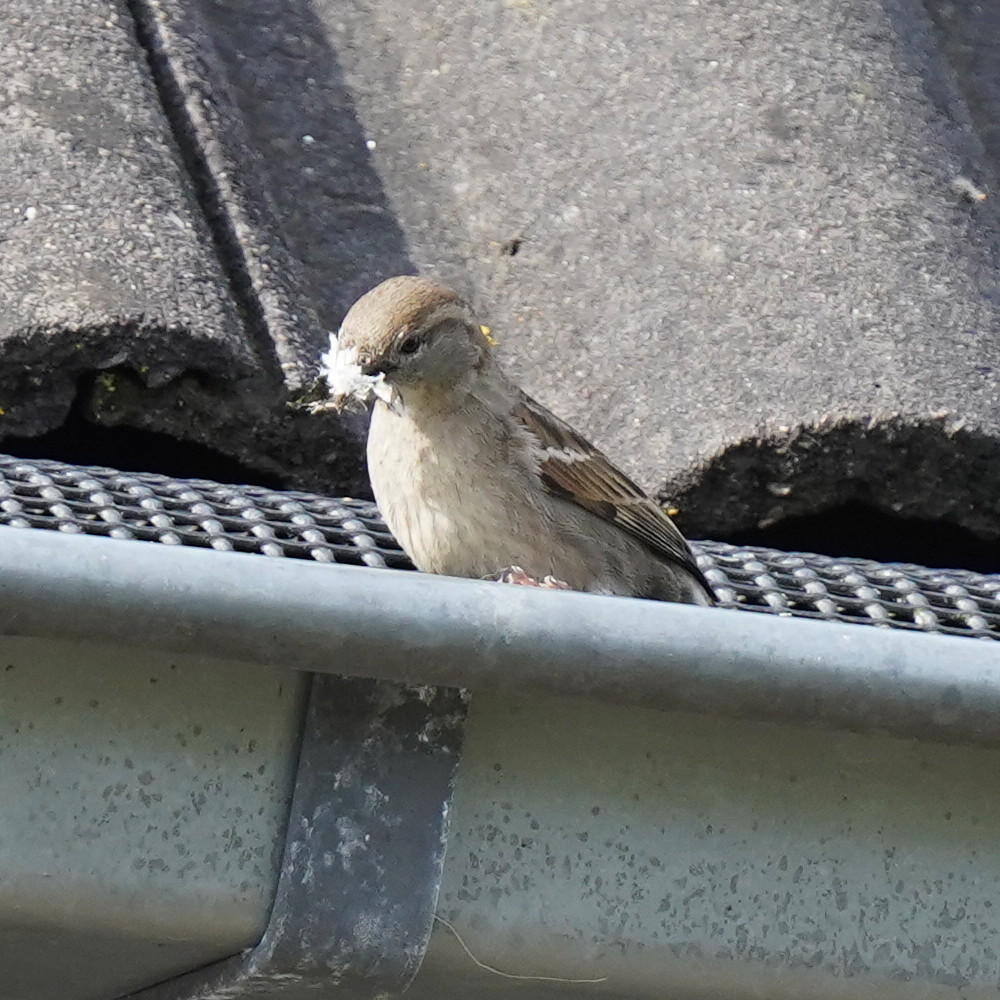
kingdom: Animalia
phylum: Chordata
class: Aves
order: Passeriformes
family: Passeridae
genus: Passer
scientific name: Passer domesticus
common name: House sparrow
